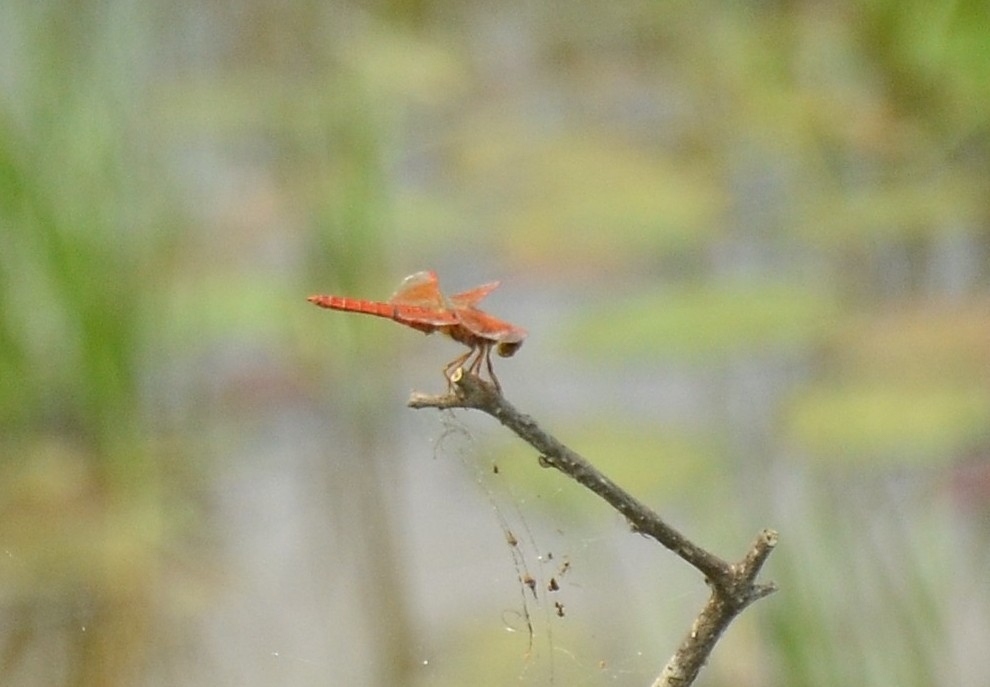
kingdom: Animalia
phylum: Arthropoda
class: Insecta
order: Odonata
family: Libellulidae
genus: Brachythemis
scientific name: Brachythemis contaminata
